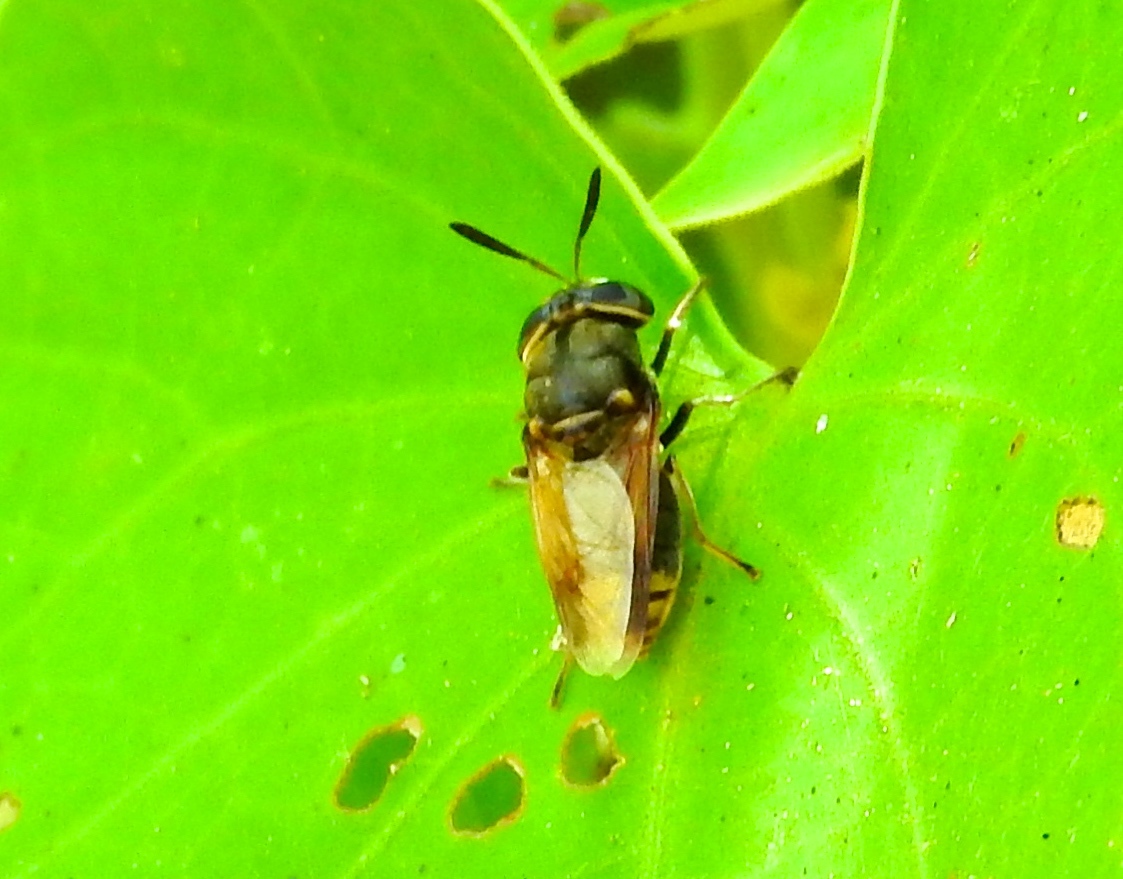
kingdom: Animalia
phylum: Arthropoda
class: Insecta
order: Diptera
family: Stratiomyidae
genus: Hoplitimyia
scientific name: Hoplitimyia
